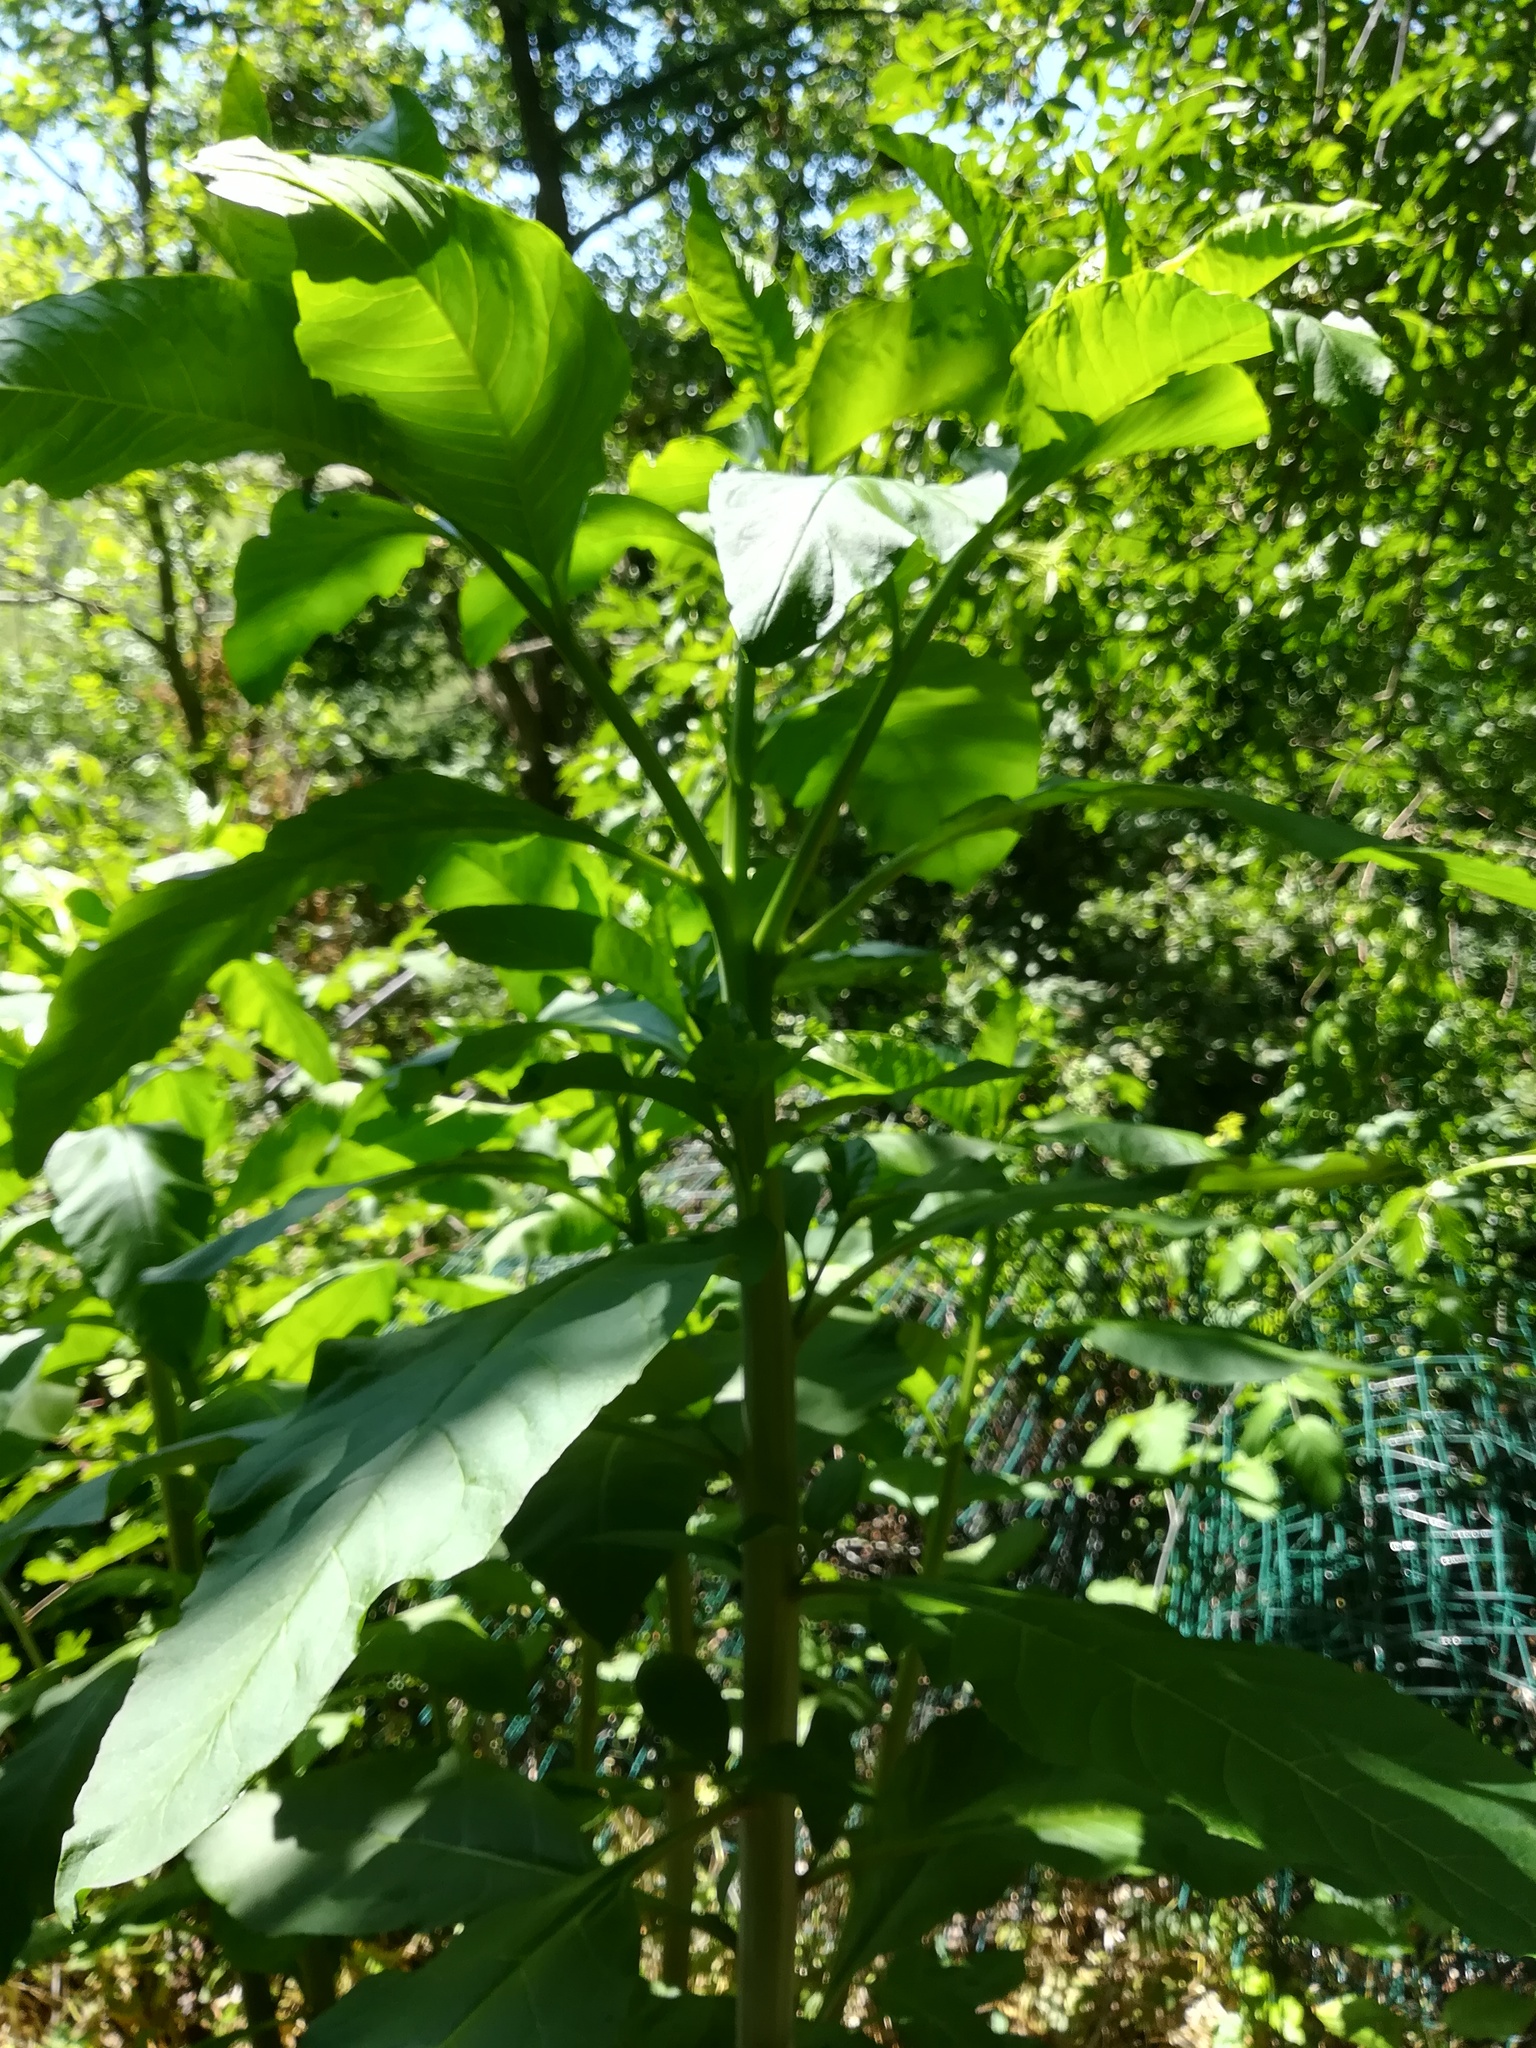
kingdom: Plantae
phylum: Tracheophyta
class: Magnoliopsida
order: Caryophyllales
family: Phytolaccaceae
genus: Phytolacca
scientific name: Phytolacca americana
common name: American pokeweed
